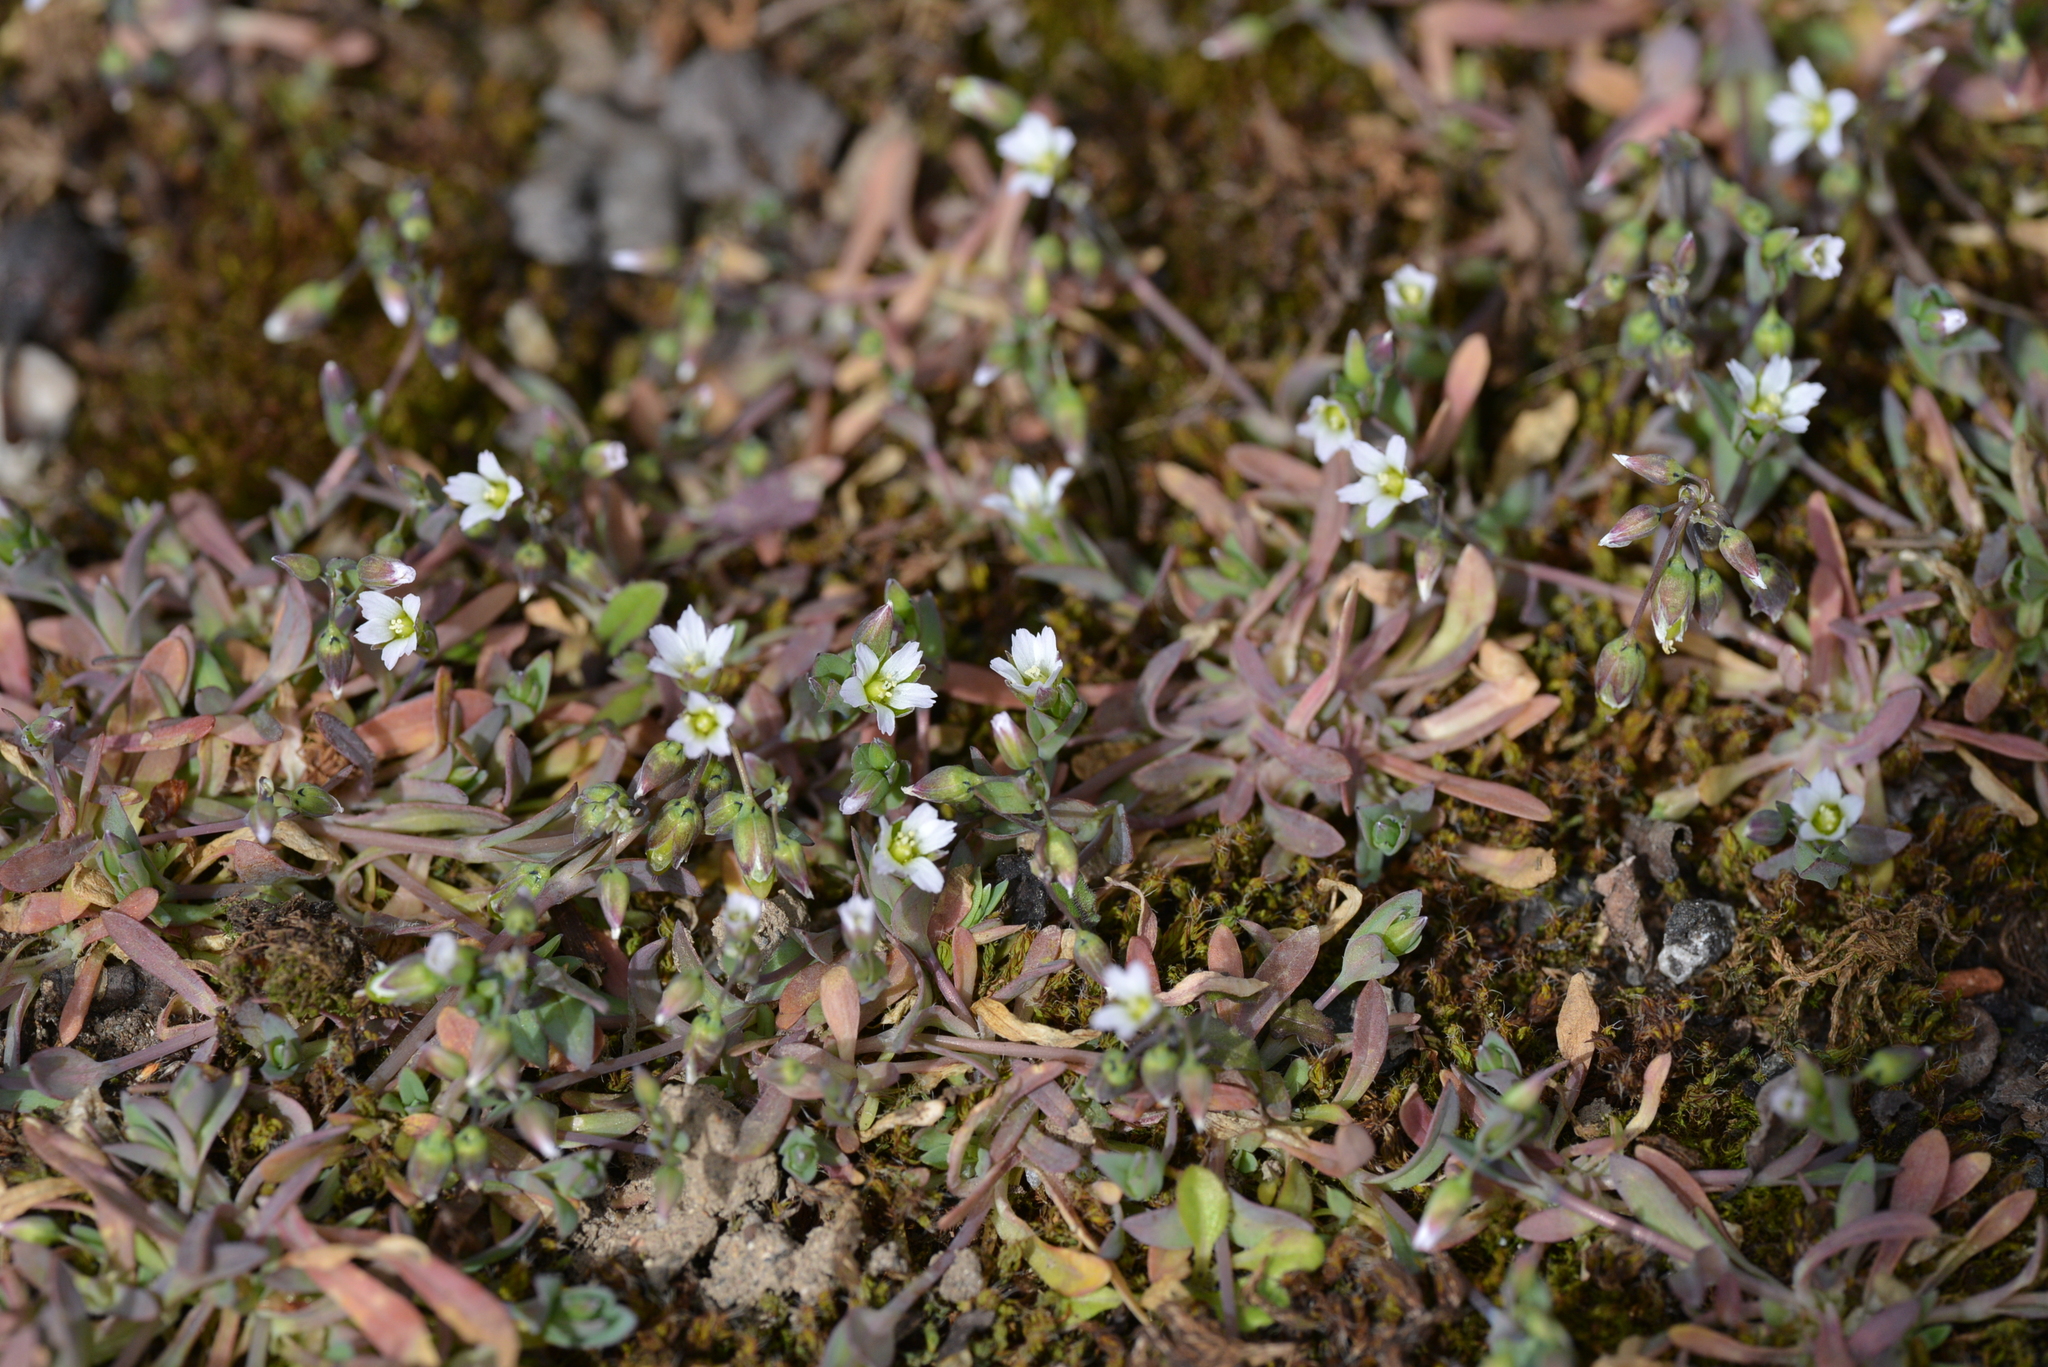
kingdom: Plantae
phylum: Tracheophyta
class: Magnoliopsida
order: Caryophyllales
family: Caryophyllaceae
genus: Holosteum
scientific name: Holosteum umbellatum
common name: Jagged chickweed
